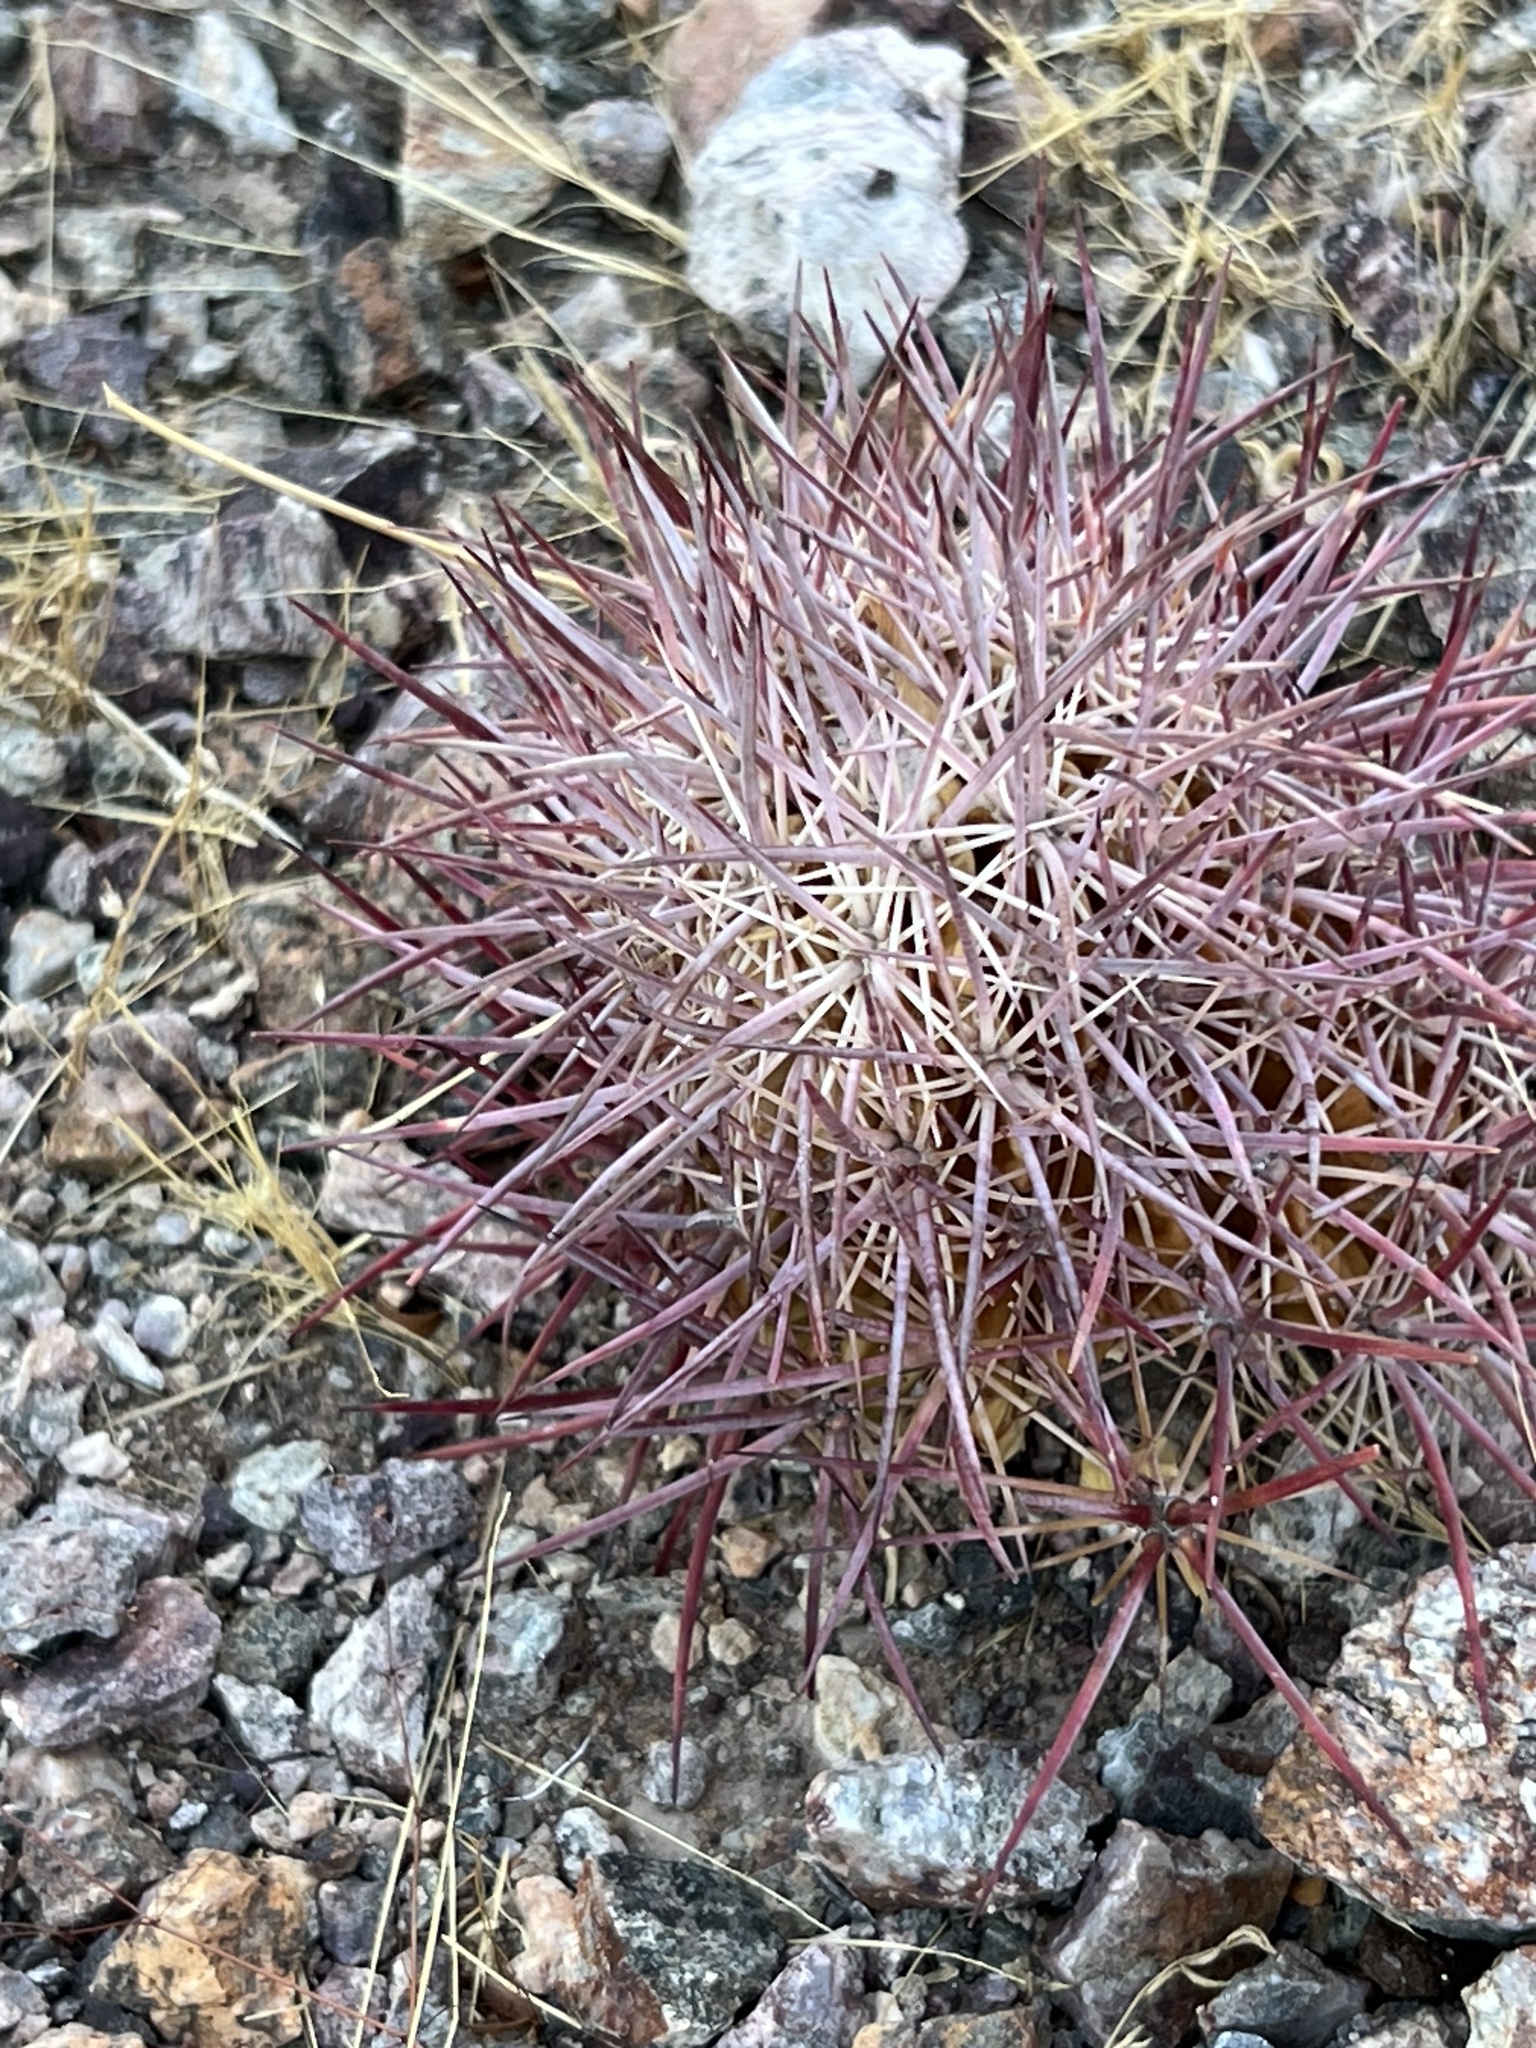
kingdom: Plantae
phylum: Tracheophyta
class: Magnoliopsida
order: Caryophyllales
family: Cactaceae
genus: Sclerocactus
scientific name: Sclerocactus johnsonii
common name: Eight-spine fishhook cactus
